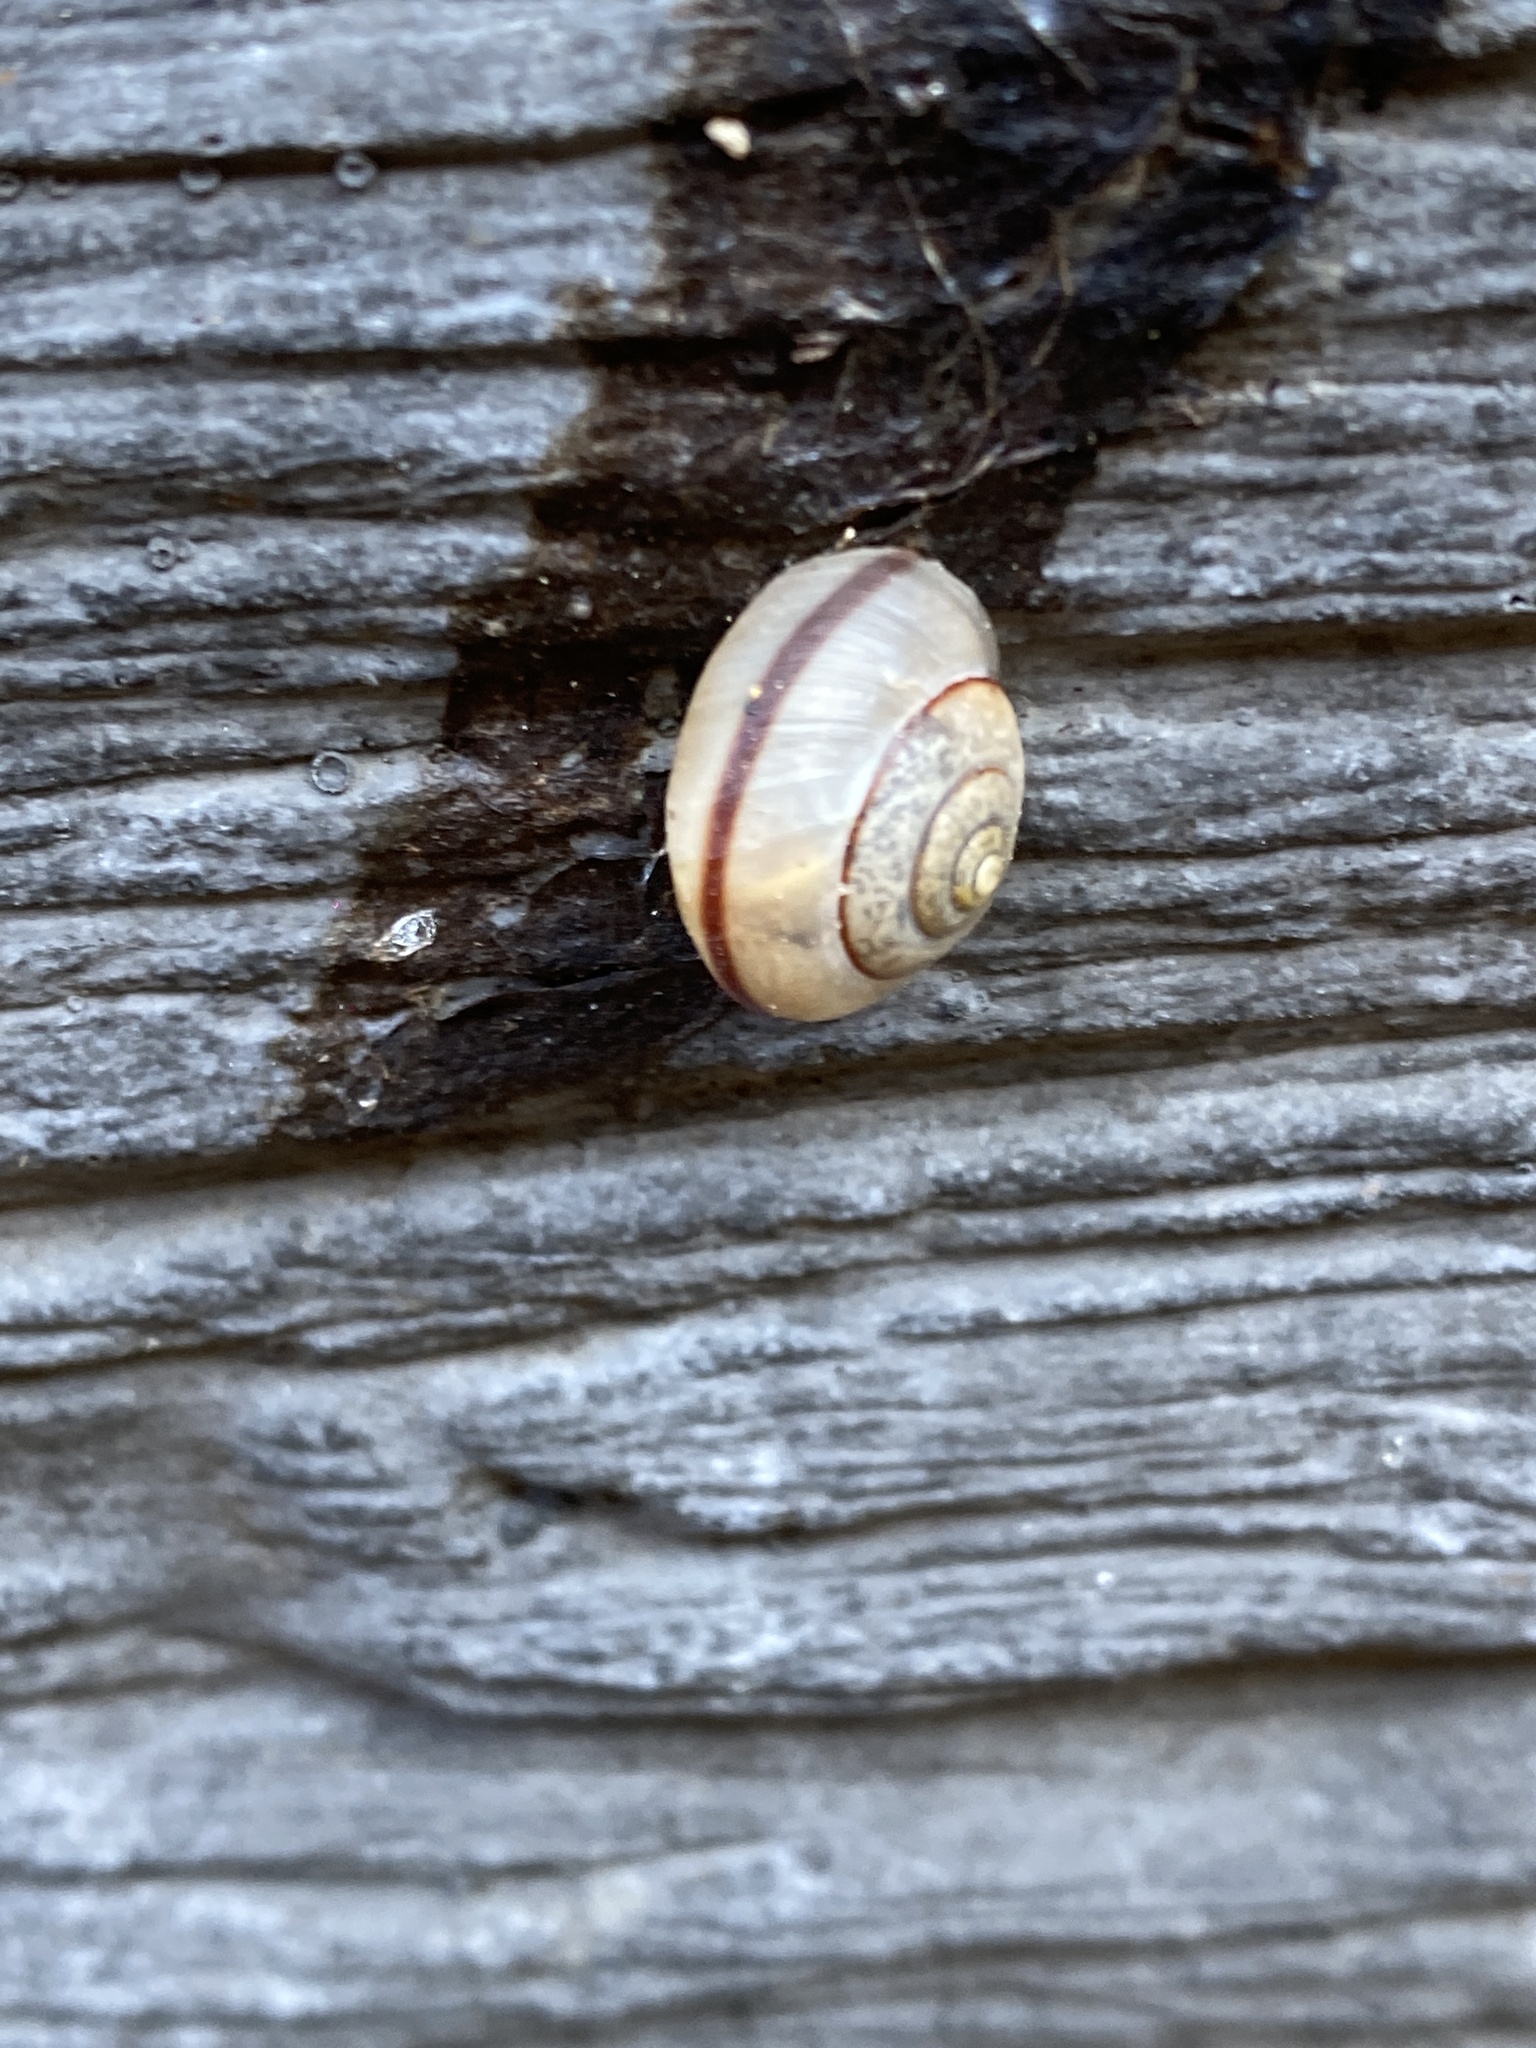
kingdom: Animalia
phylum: Mollusca
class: Gastropoda
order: Stylommatophora
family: Camaenidae
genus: Bradybaena
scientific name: Bradybaena similaris
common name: Asian trampsnail
